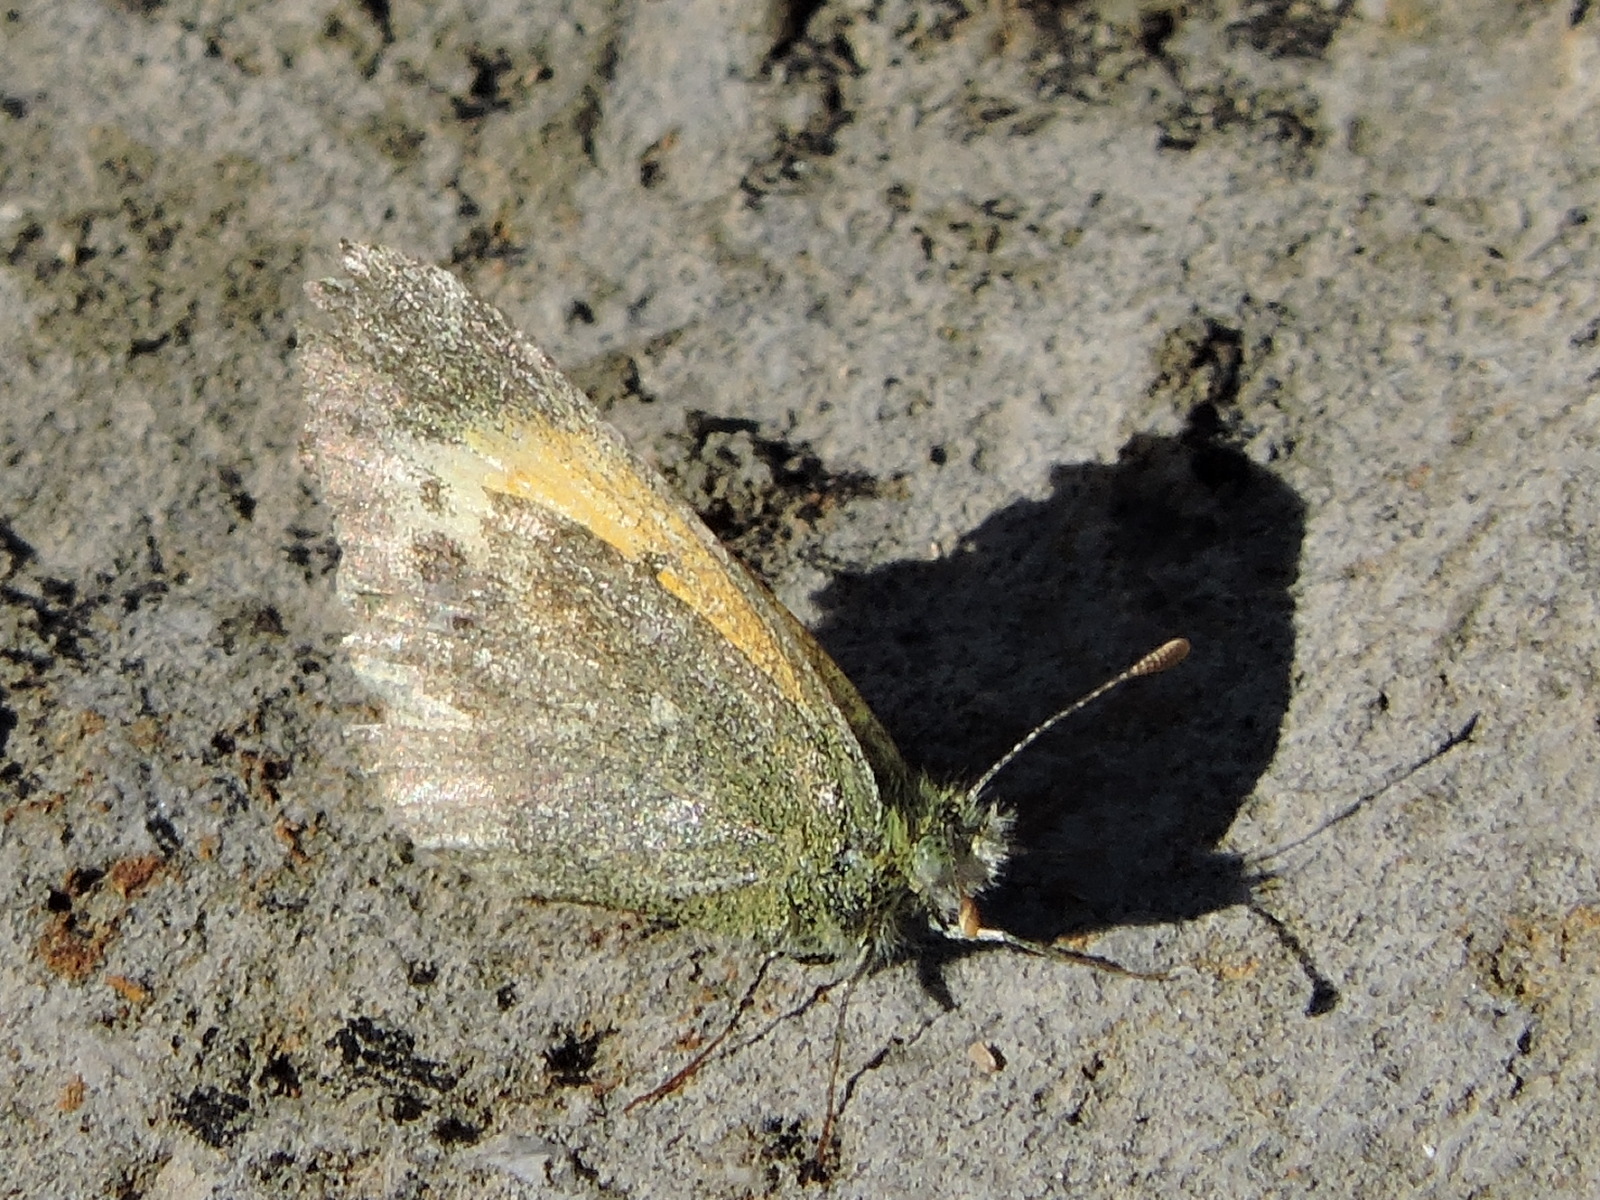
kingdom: Animalia
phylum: Arthropoda
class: Insecta
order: Lepidoptera
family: Pieridae
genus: Nathalis
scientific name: Nathalis iole
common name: Dainty sulphur
